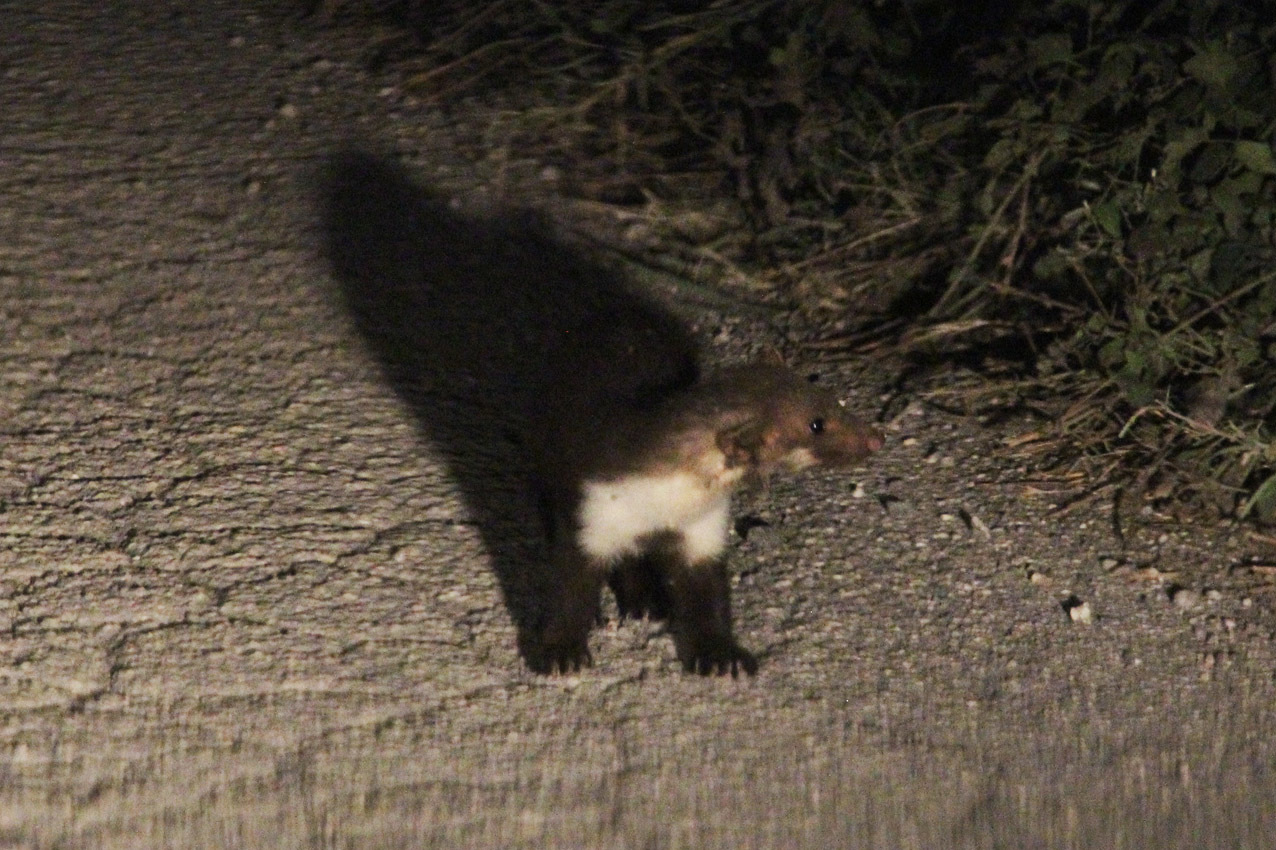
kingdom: Animalia
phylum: Chordata
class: Mammalia
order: Carnivora
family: Mustelidae
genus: Martes
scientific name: Martes foina
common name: Beech marten
